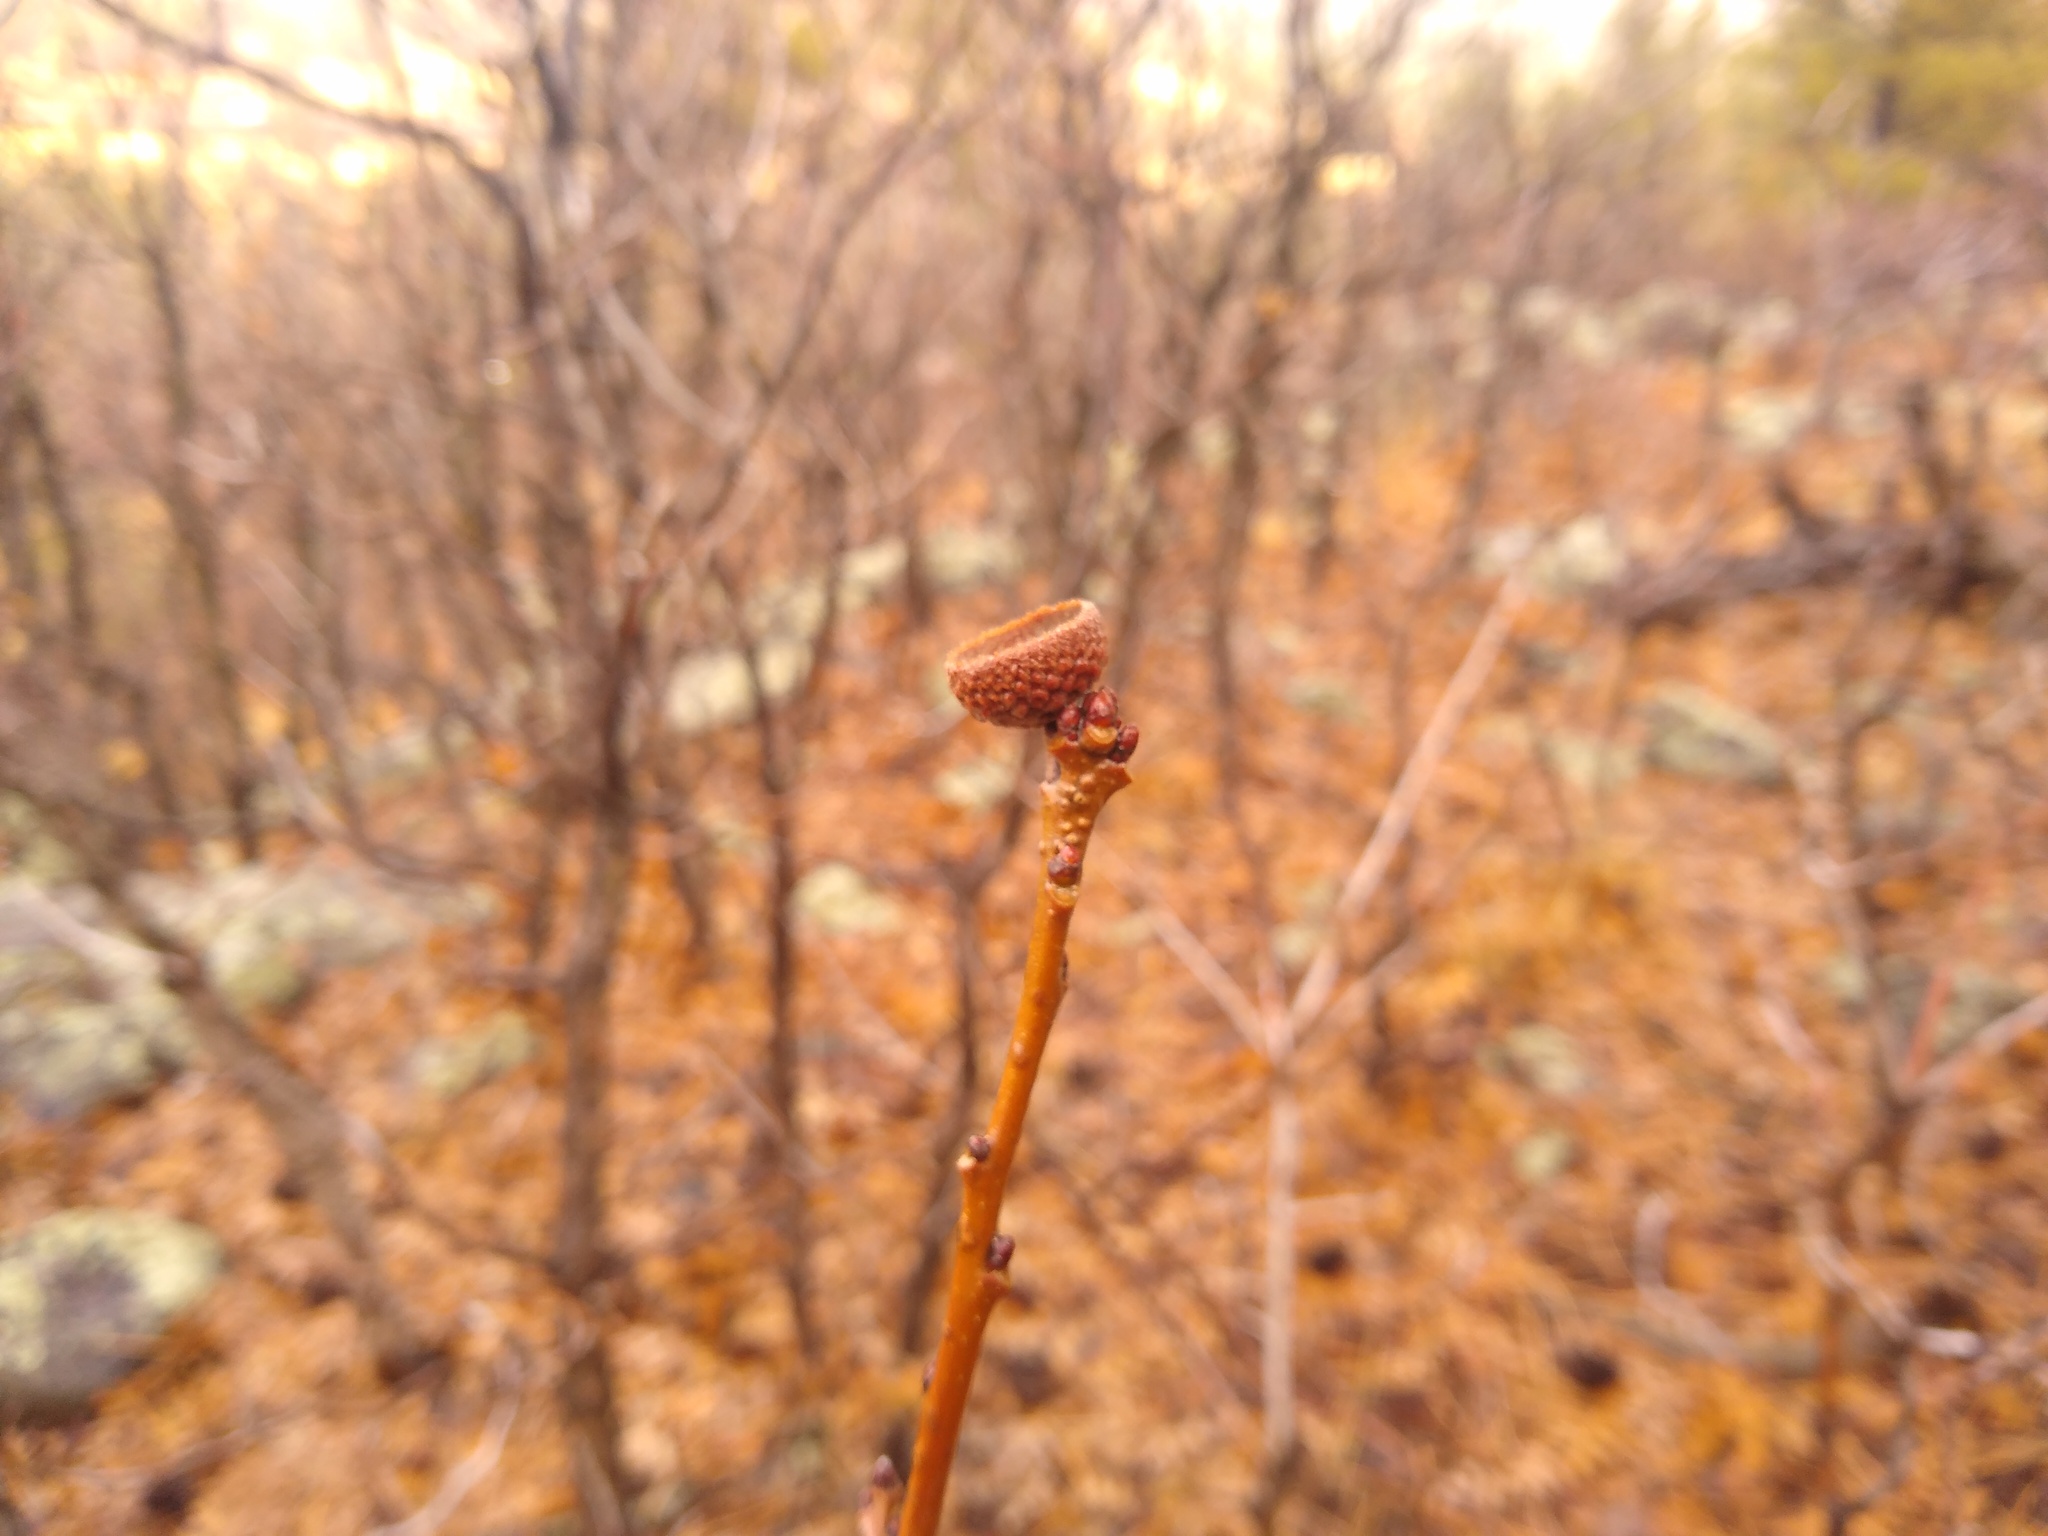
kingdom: Plantae
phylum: Tracheophyta
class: Magnoliopsida
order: Fagales
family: Fagaceae
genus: Quercus
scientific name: Quercus gambelii
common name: Gambel oak
